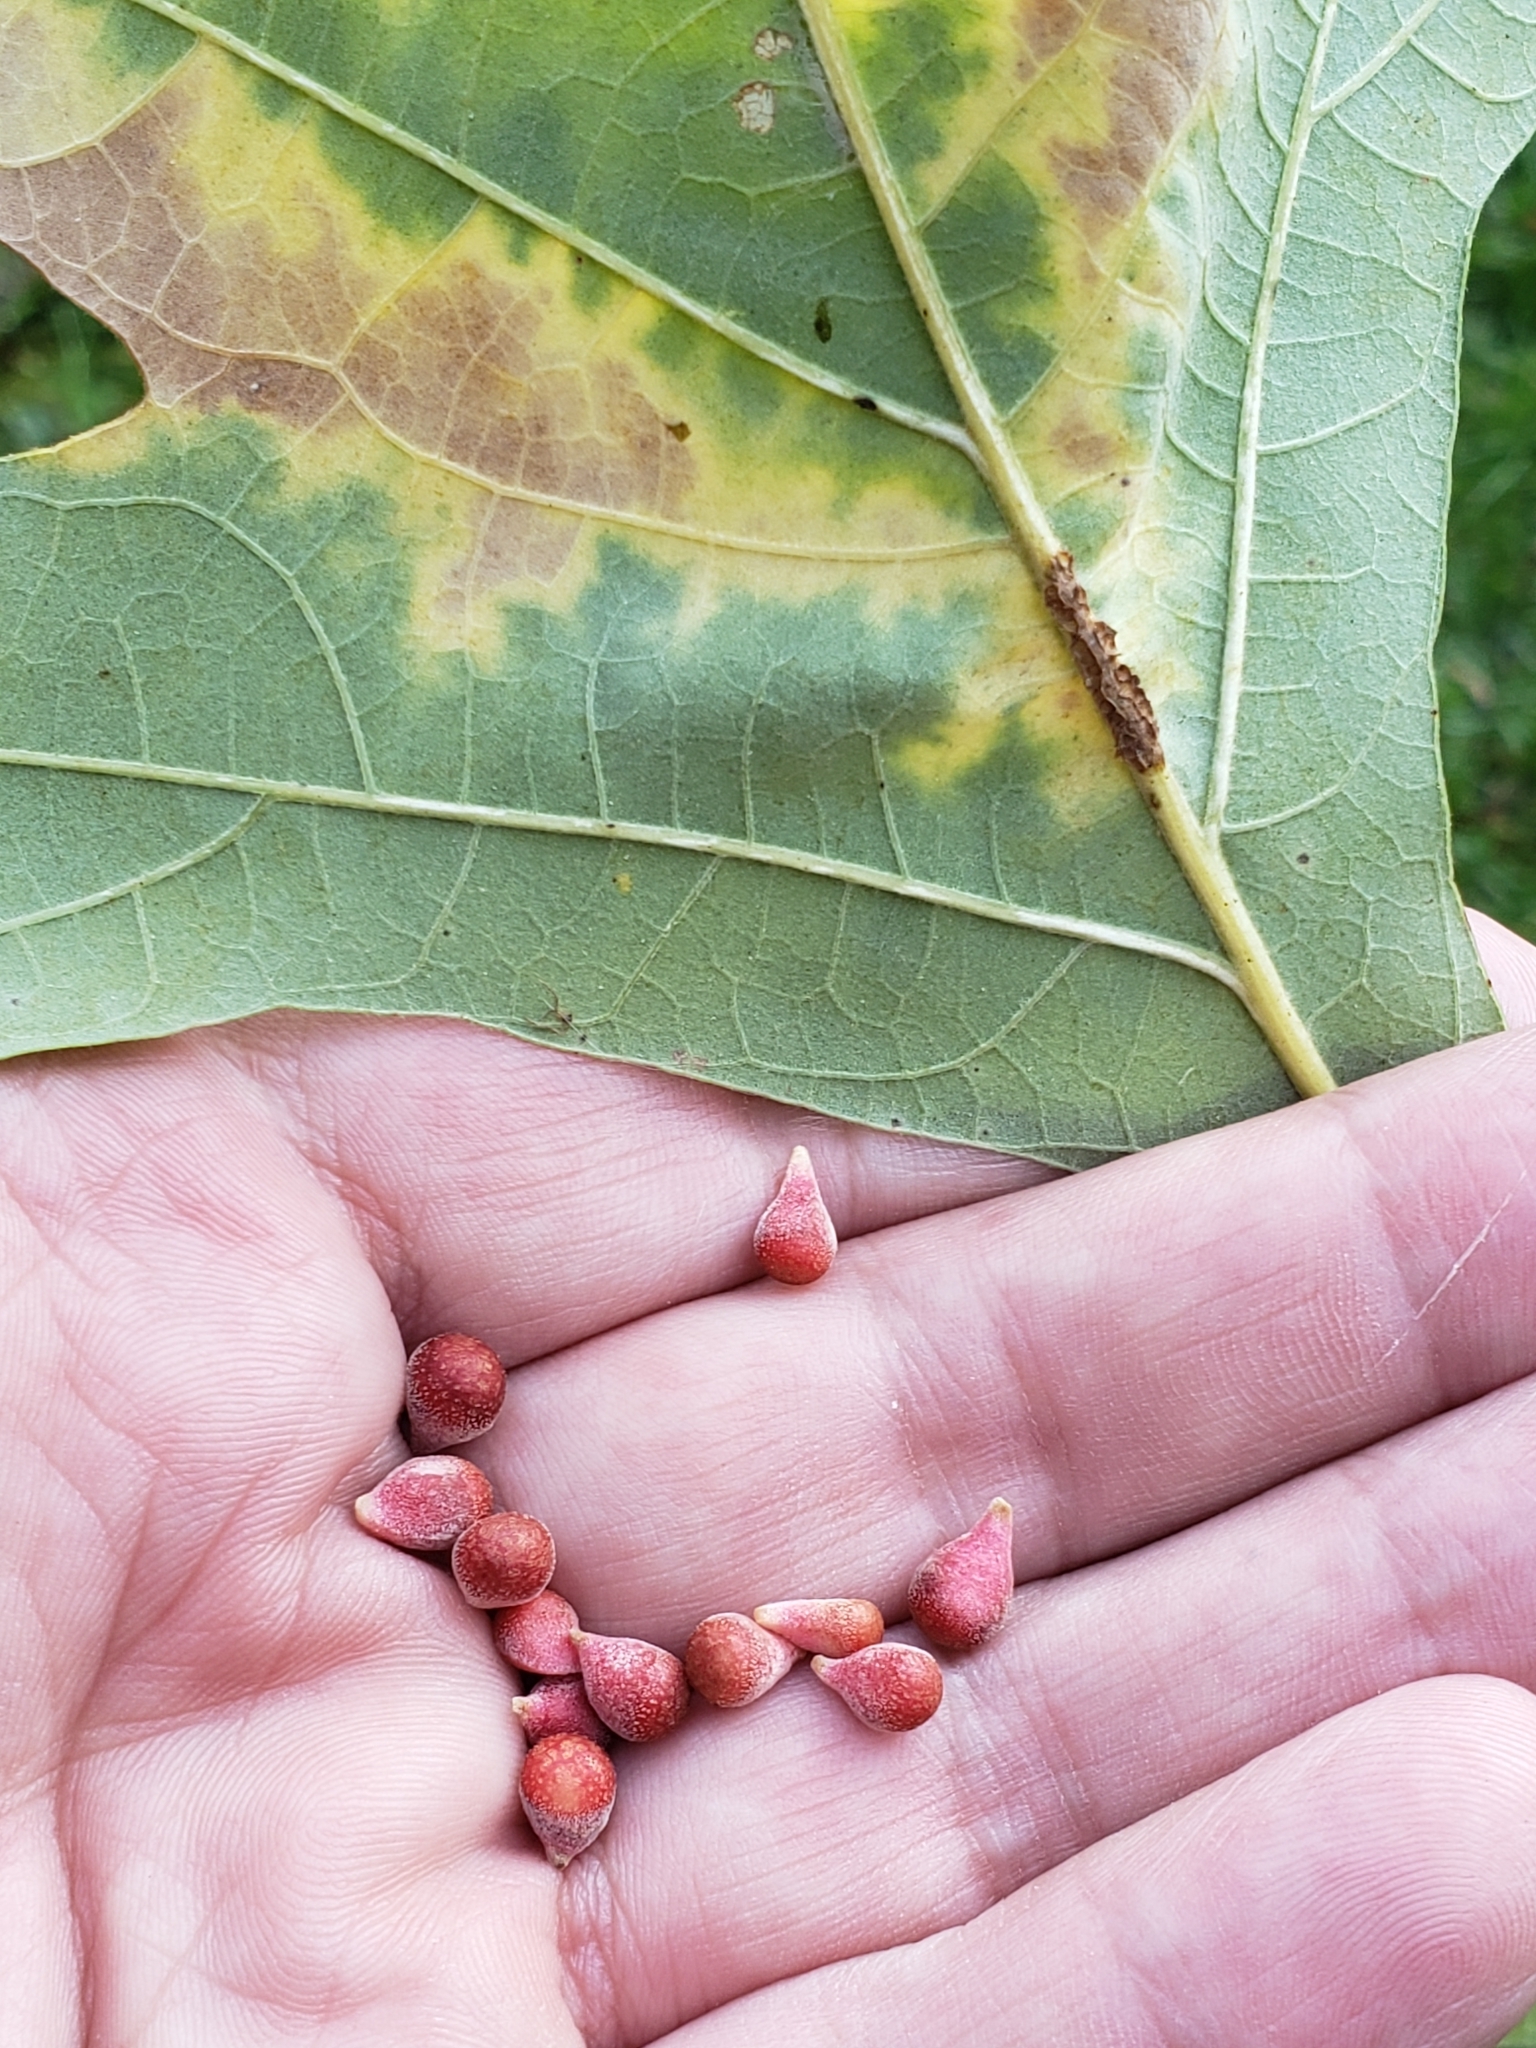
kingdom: Animalia
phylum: Arthropoda
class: Insecta
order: Hymenoptera
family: Cynipidae
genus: Andricus
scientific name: Andricus
